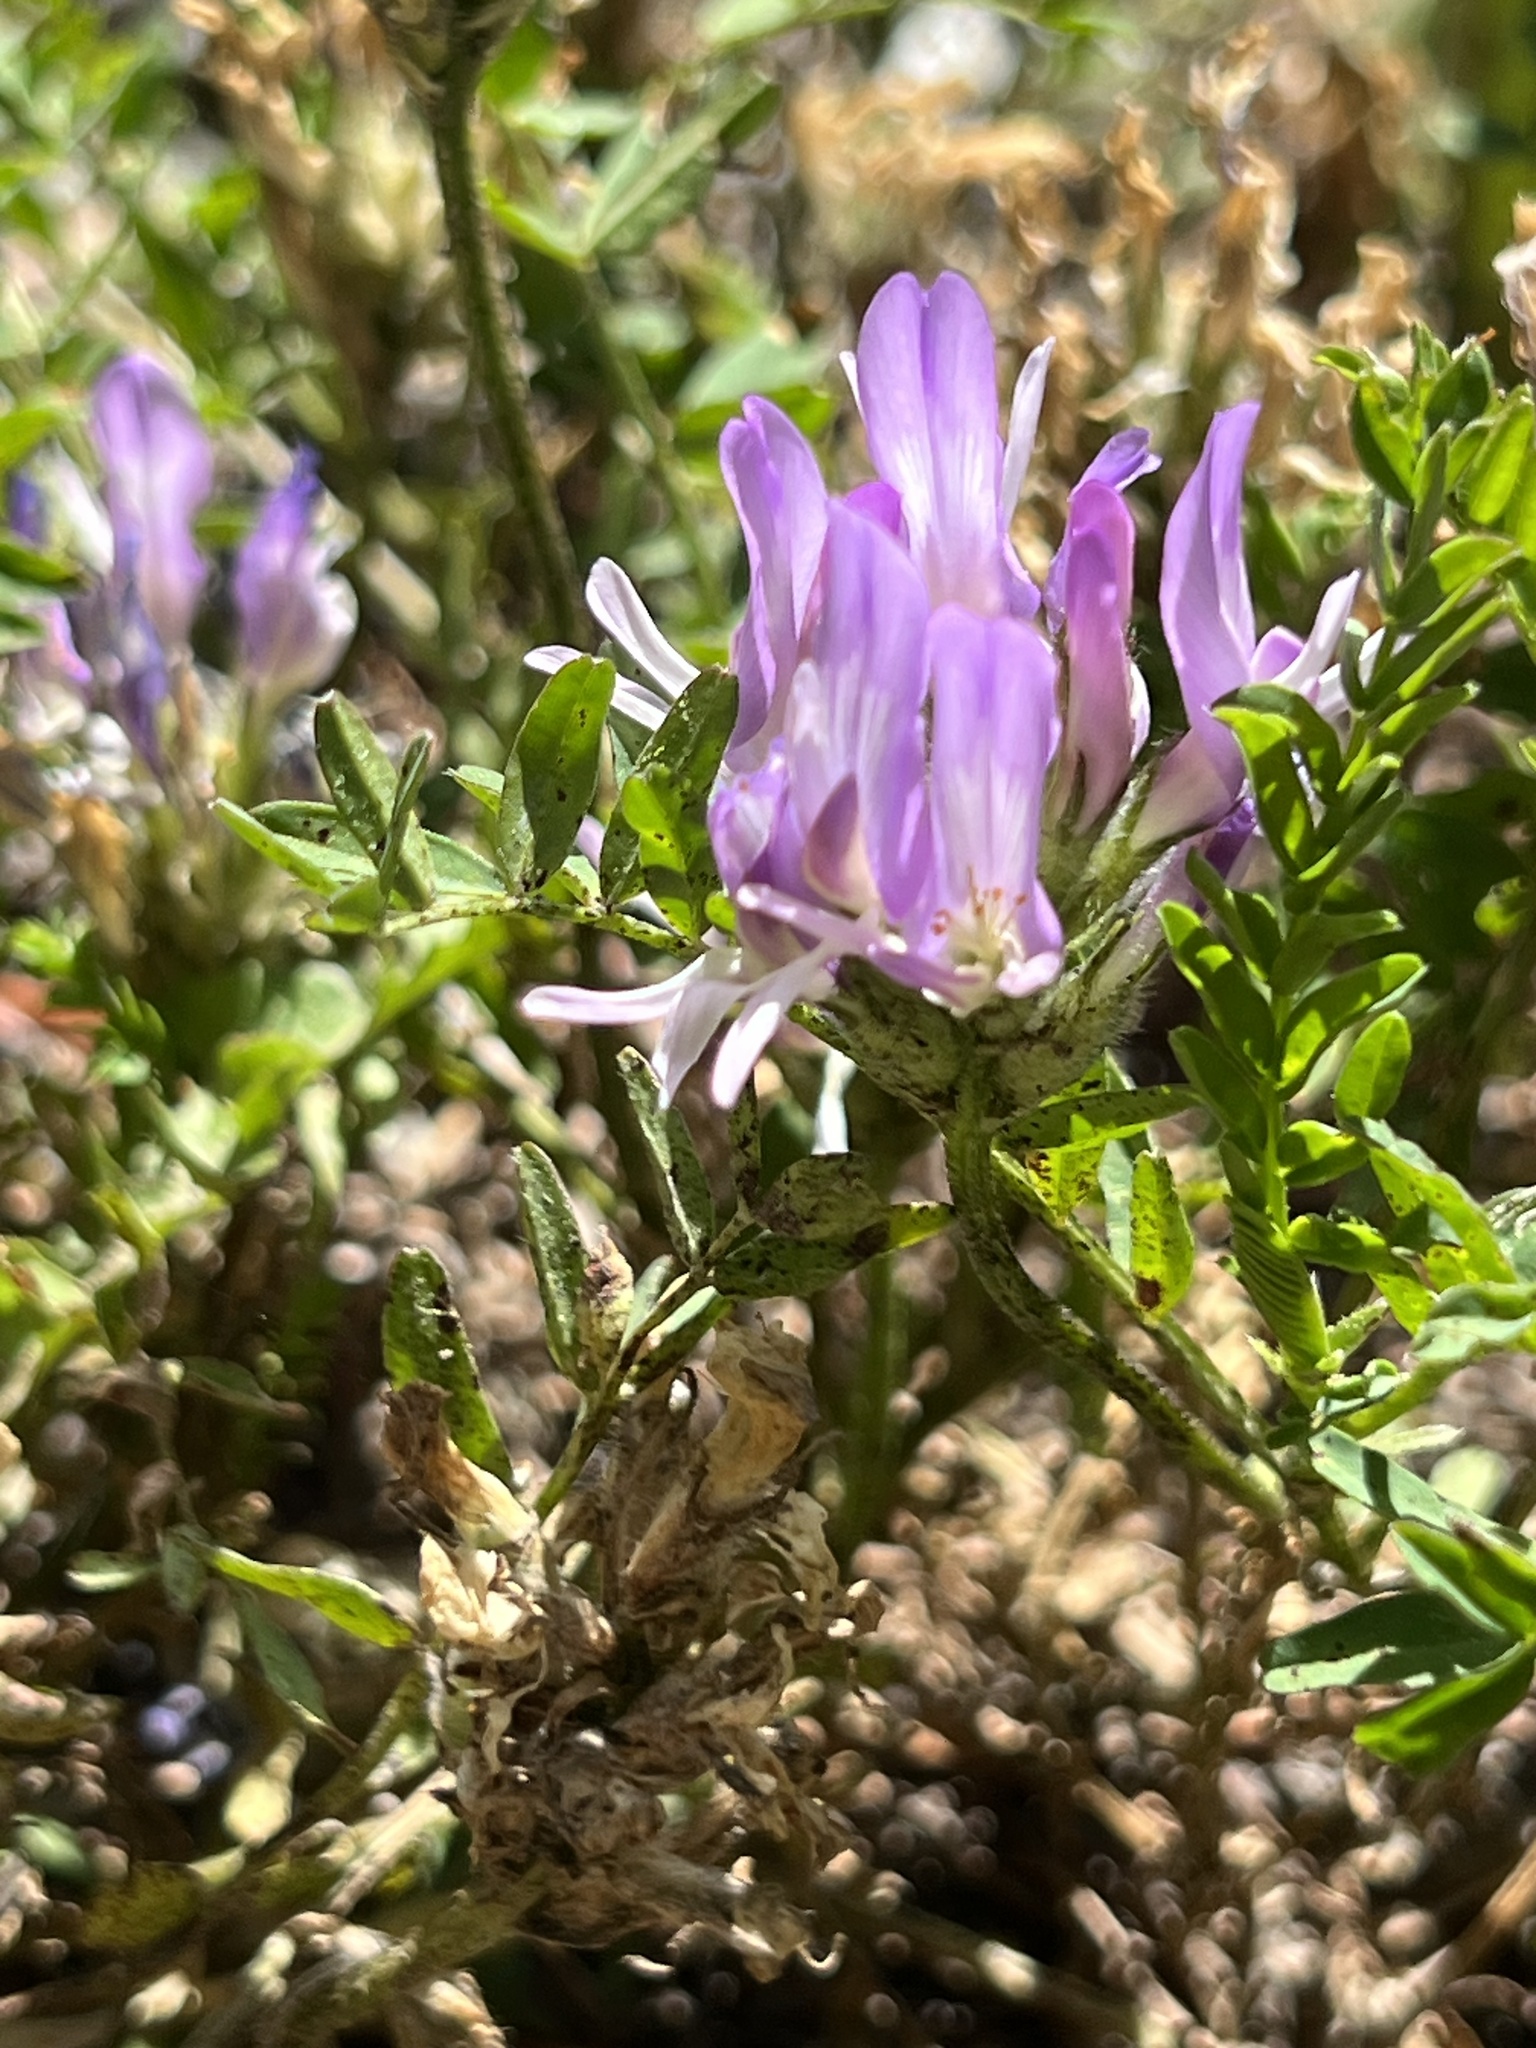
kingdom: Plantae
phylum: Tracheophyta
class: Magnoliopsida
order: Fabales
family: Fabaceae
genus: Astragalus
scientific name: Astragalus agrestis
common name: Field milk-vetch
